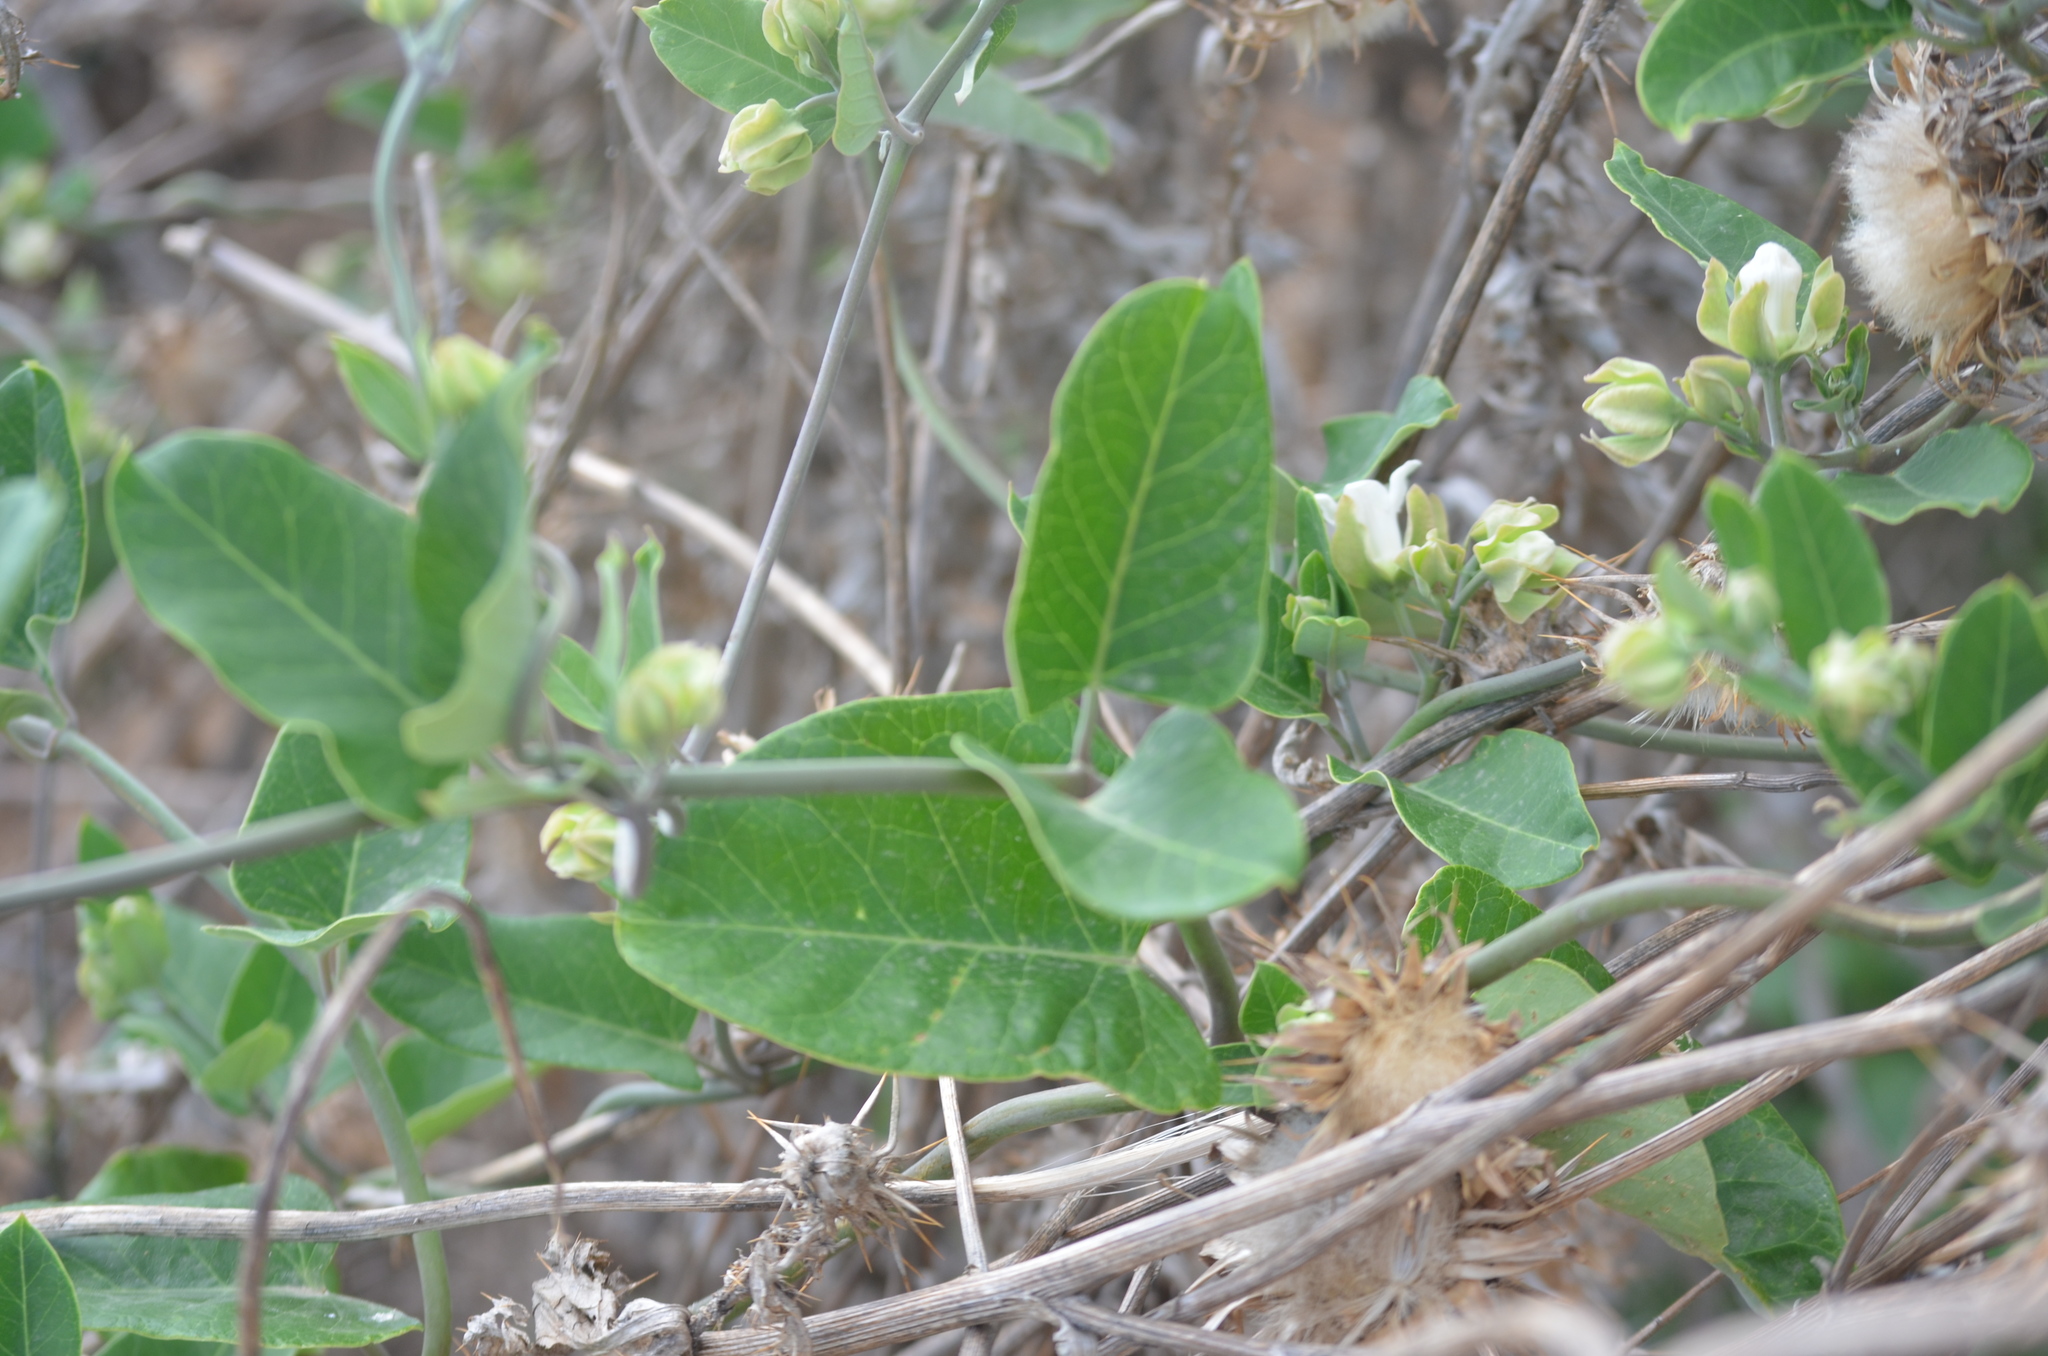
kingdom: Plantae
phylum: Tracheophyta
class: Magnoliopsida
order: Gentianales
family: Apocynaceae
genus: Araujia
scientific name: Araujia sericifera
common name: White bladderflower
